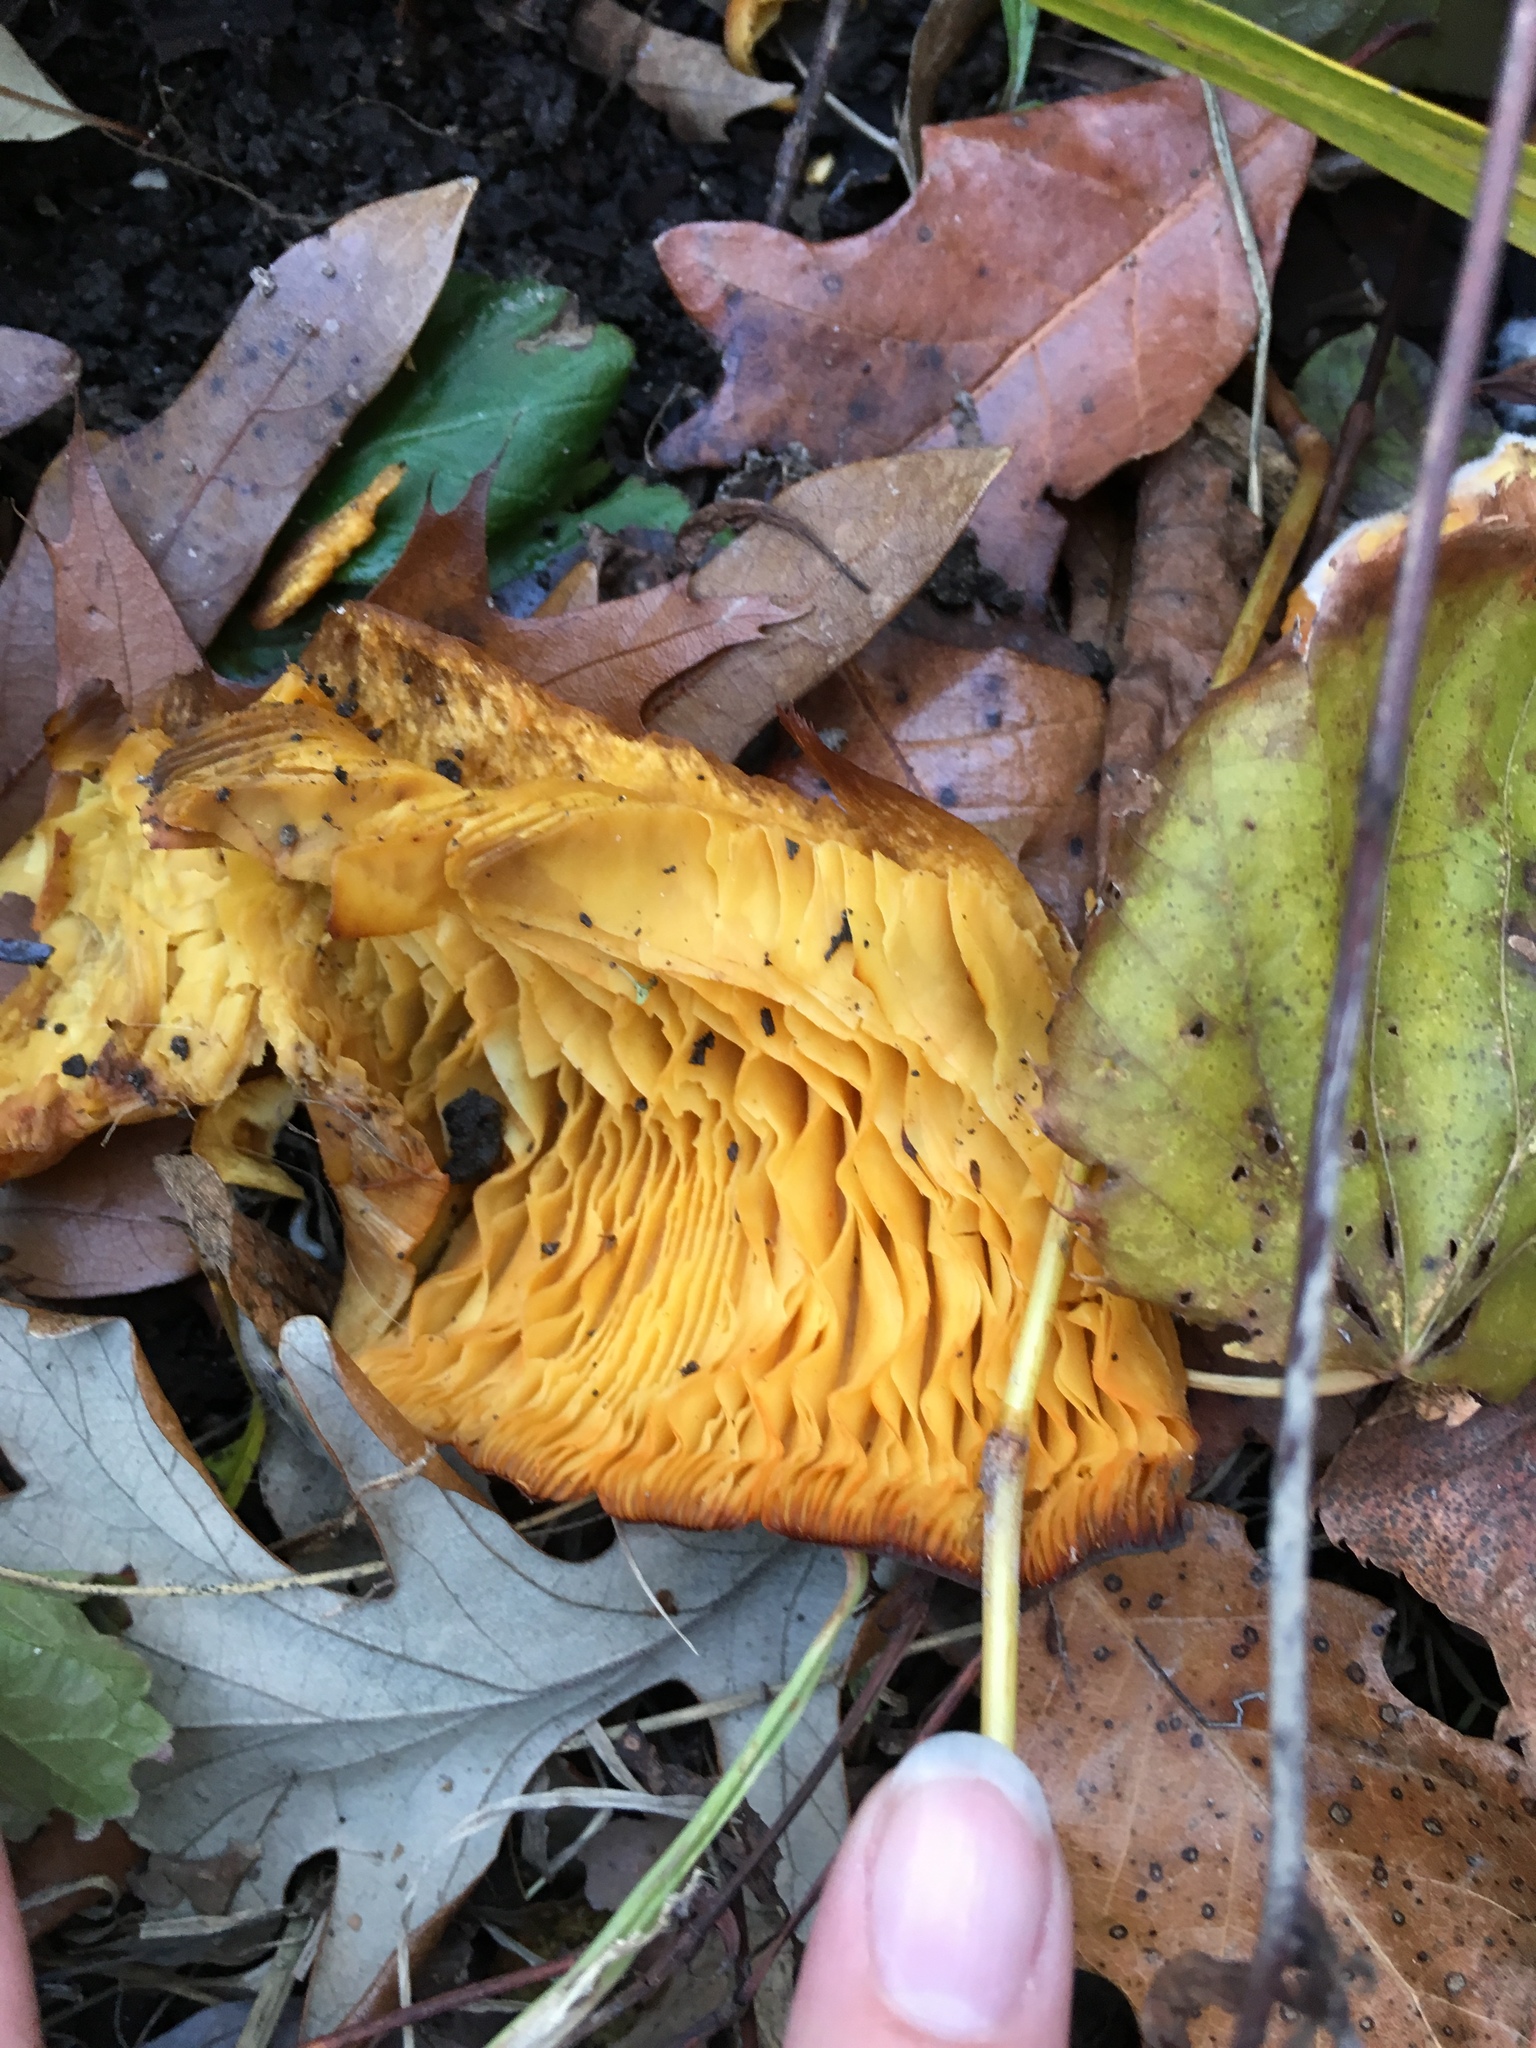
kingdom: Fungi
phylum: Basidiomycota
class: Agaricomycetes
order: Agaricales
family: Omphalotaceae
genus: Omphalotus
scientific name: Omphalotus illudens
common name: Jack o lantern
